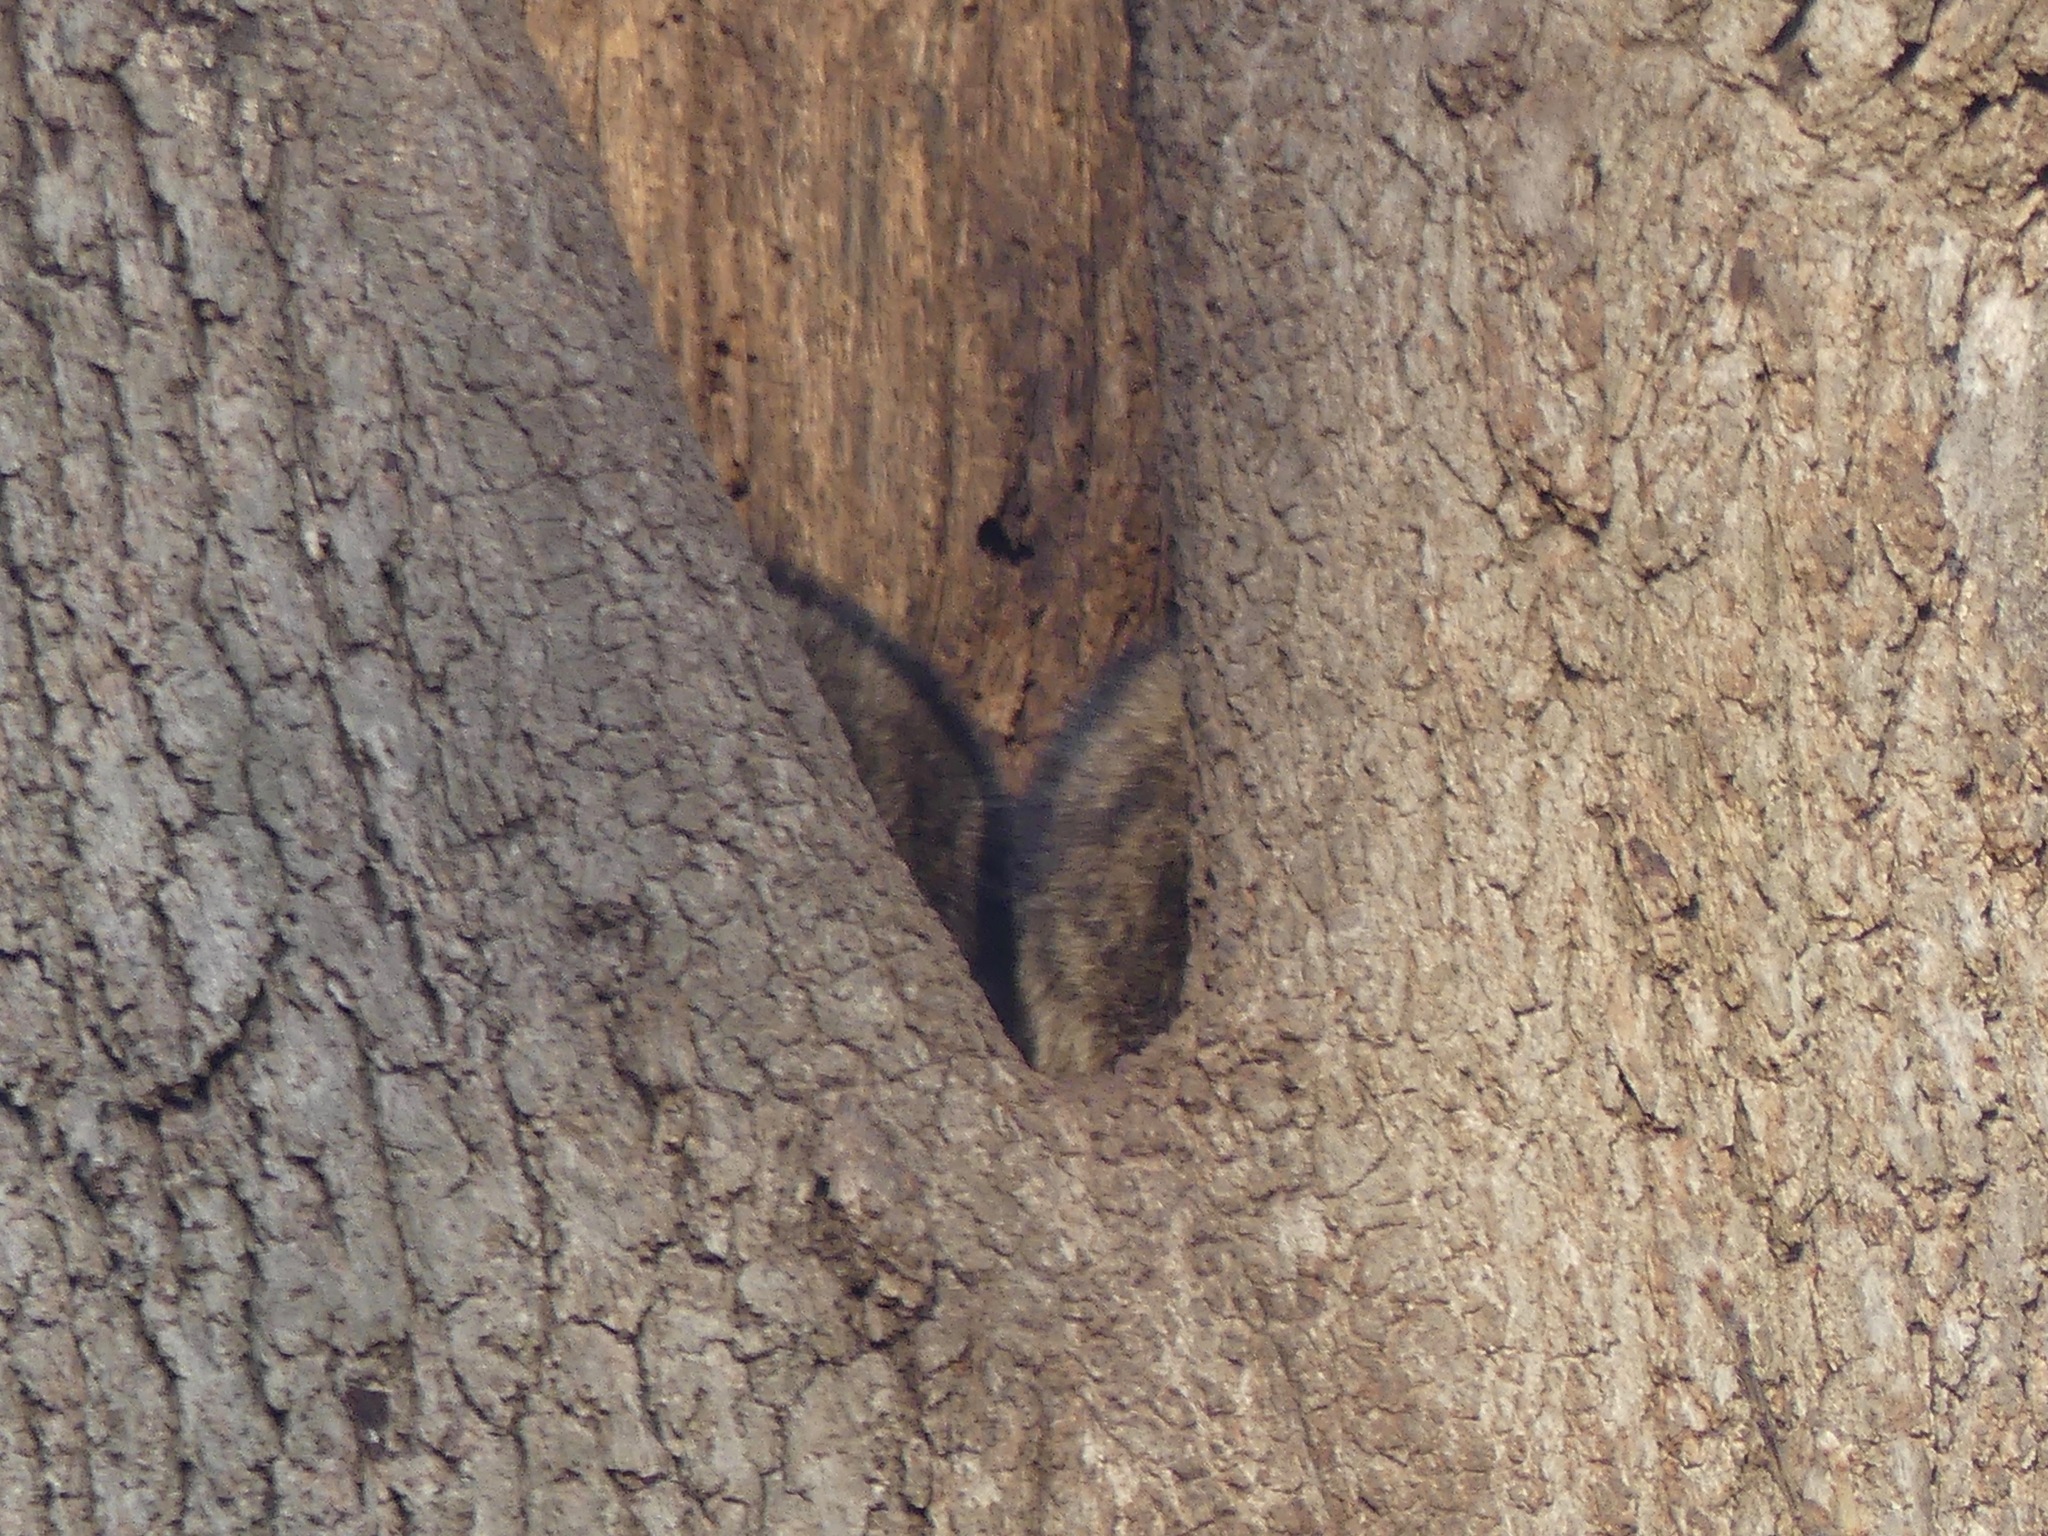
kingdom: Animalia
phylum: Chordata
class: Mammalia
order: Carnivora
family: Procyonidae
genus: Procyon
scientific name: Procyon lotor
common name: Raccoon
